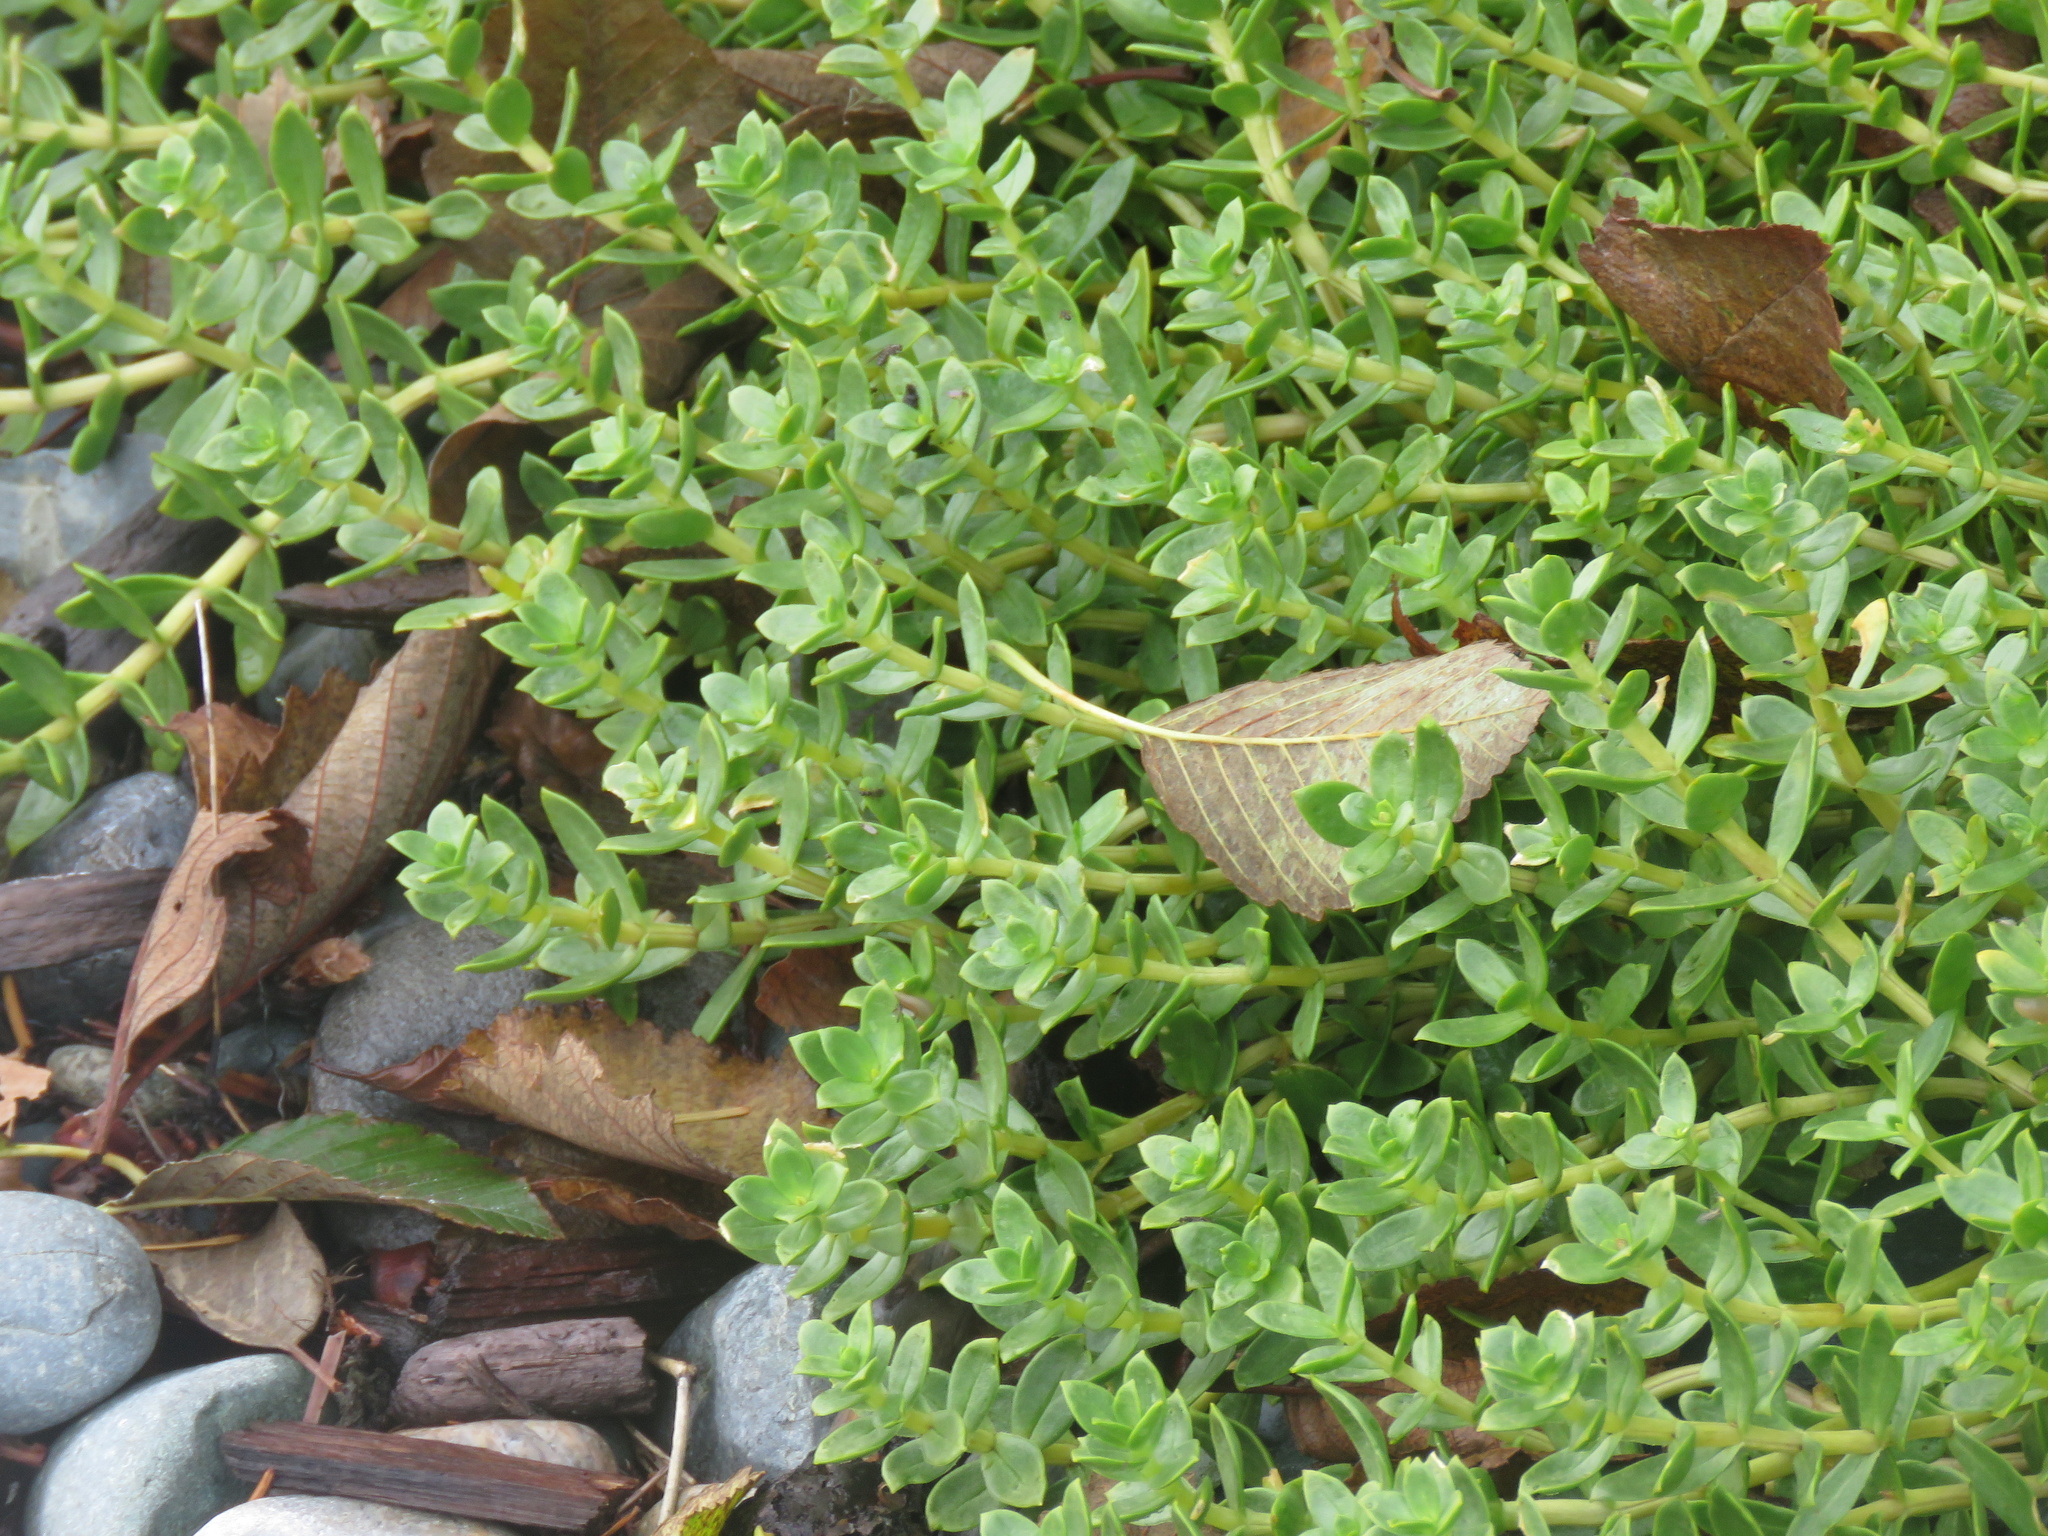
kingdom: Plantae
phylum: Tracheophyta
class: Magnoliopsida
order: Caryophyllales
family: Caryophyllaceae
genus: Honckenya
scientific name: Honckenya peploides
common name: Sea sandwort
